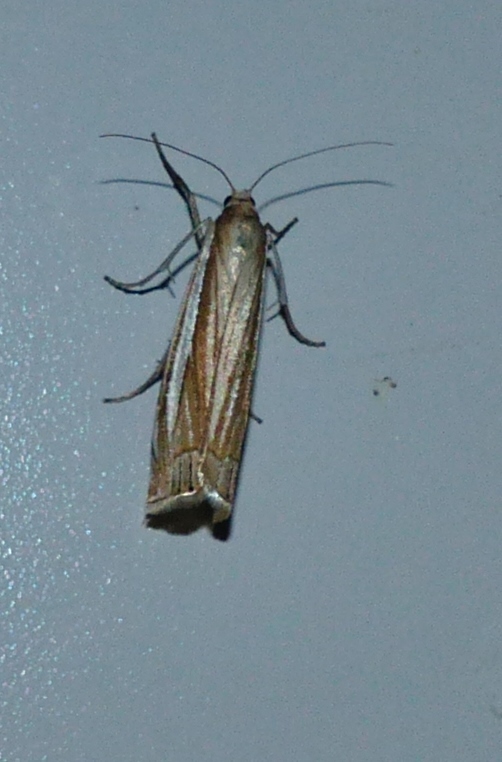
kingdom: Animalia
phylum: Arthropoda
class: Insecta
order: Lepidoptera
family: Crambidae
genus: Crambus
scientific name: Crambus laqueatellus
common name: Eastern grass-veneer
